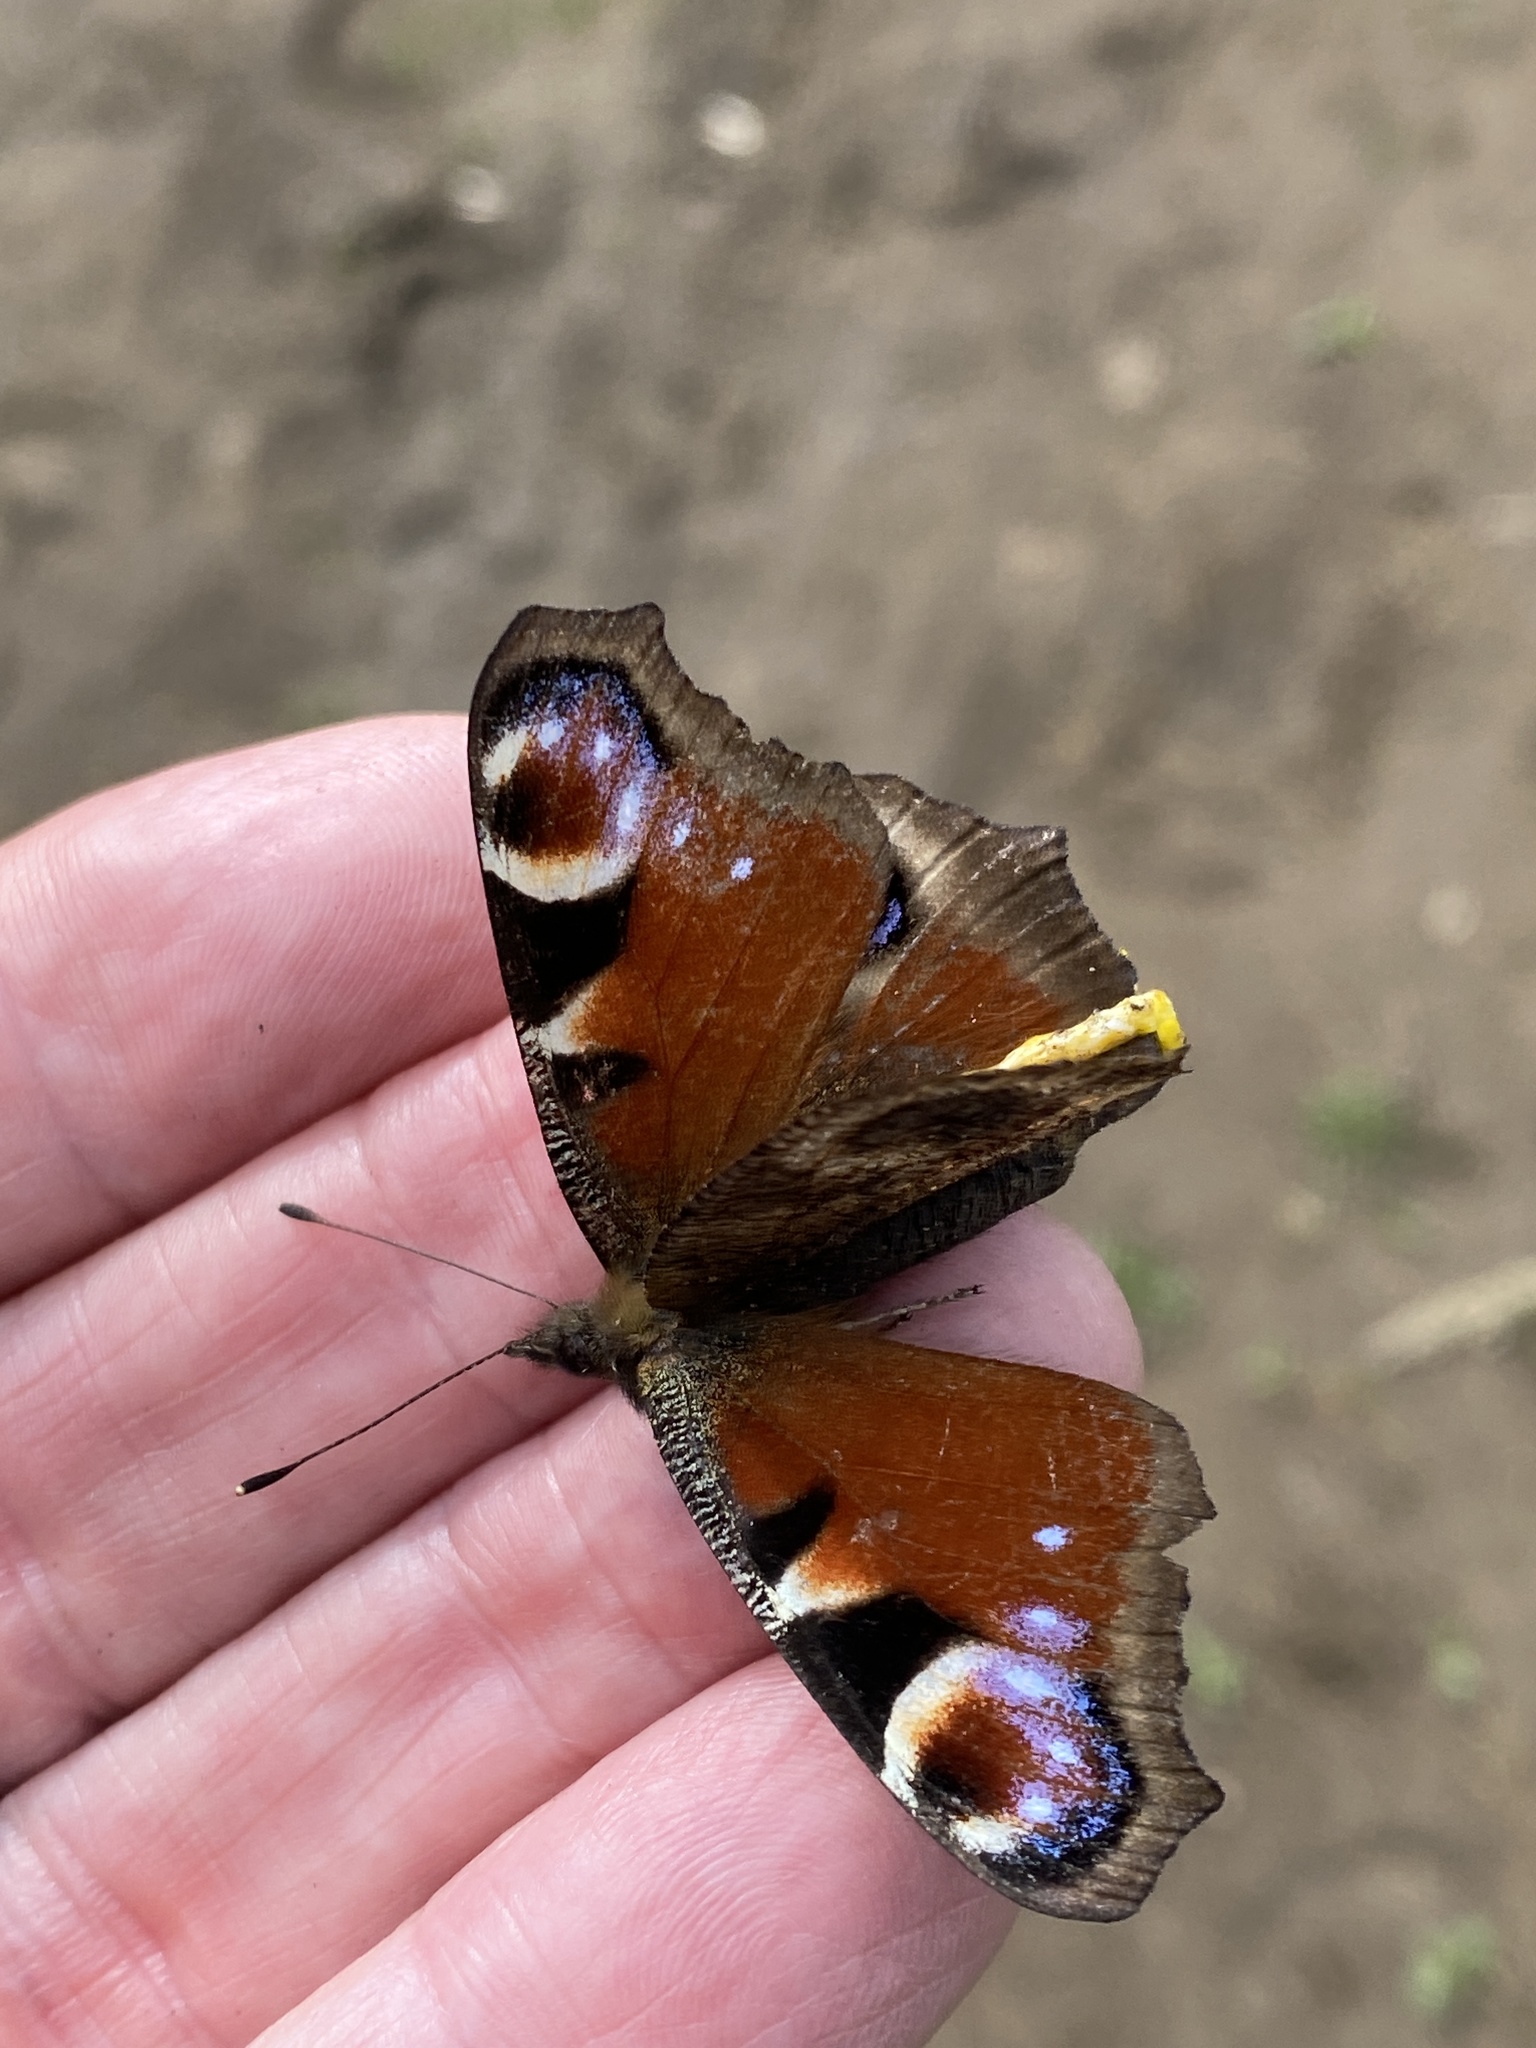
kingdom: Animalia
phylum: Arthropoda
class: Insecta
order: Lepidoptera
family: Nymphalidae
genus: Aglais
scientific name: Aglais io
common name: Peacock
